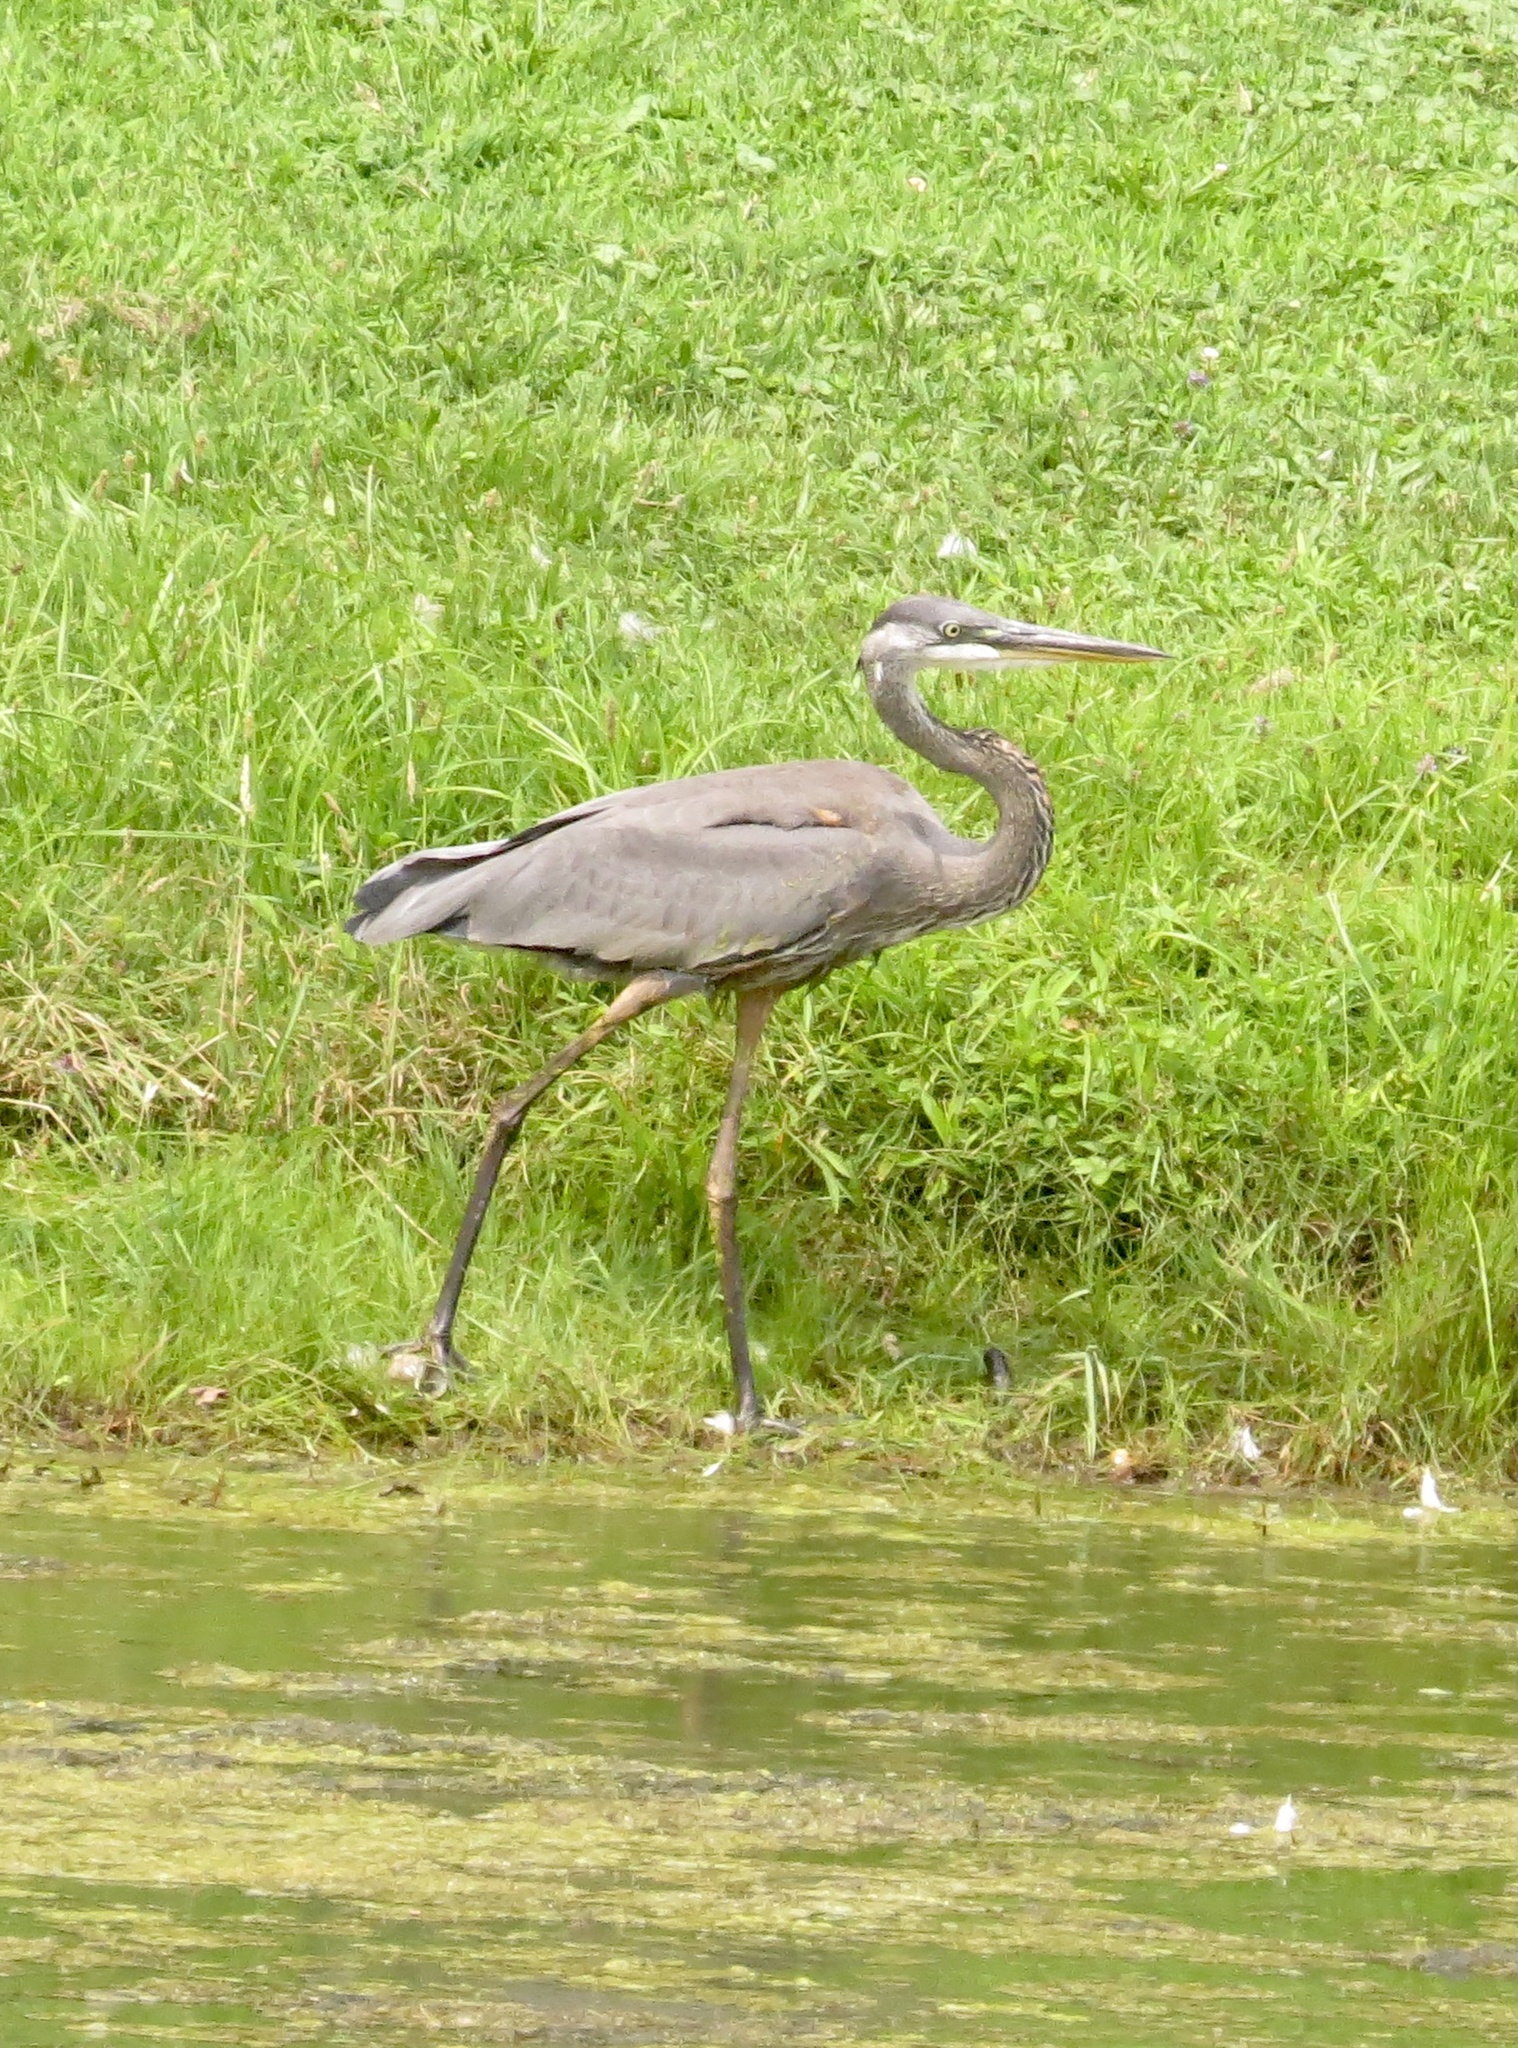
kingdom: Animalia
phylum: Chordata
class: Aves
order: Pelecaniformes
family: Ardeidae
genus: Ardea
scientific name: Ardea herodias
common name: Great blue heron
